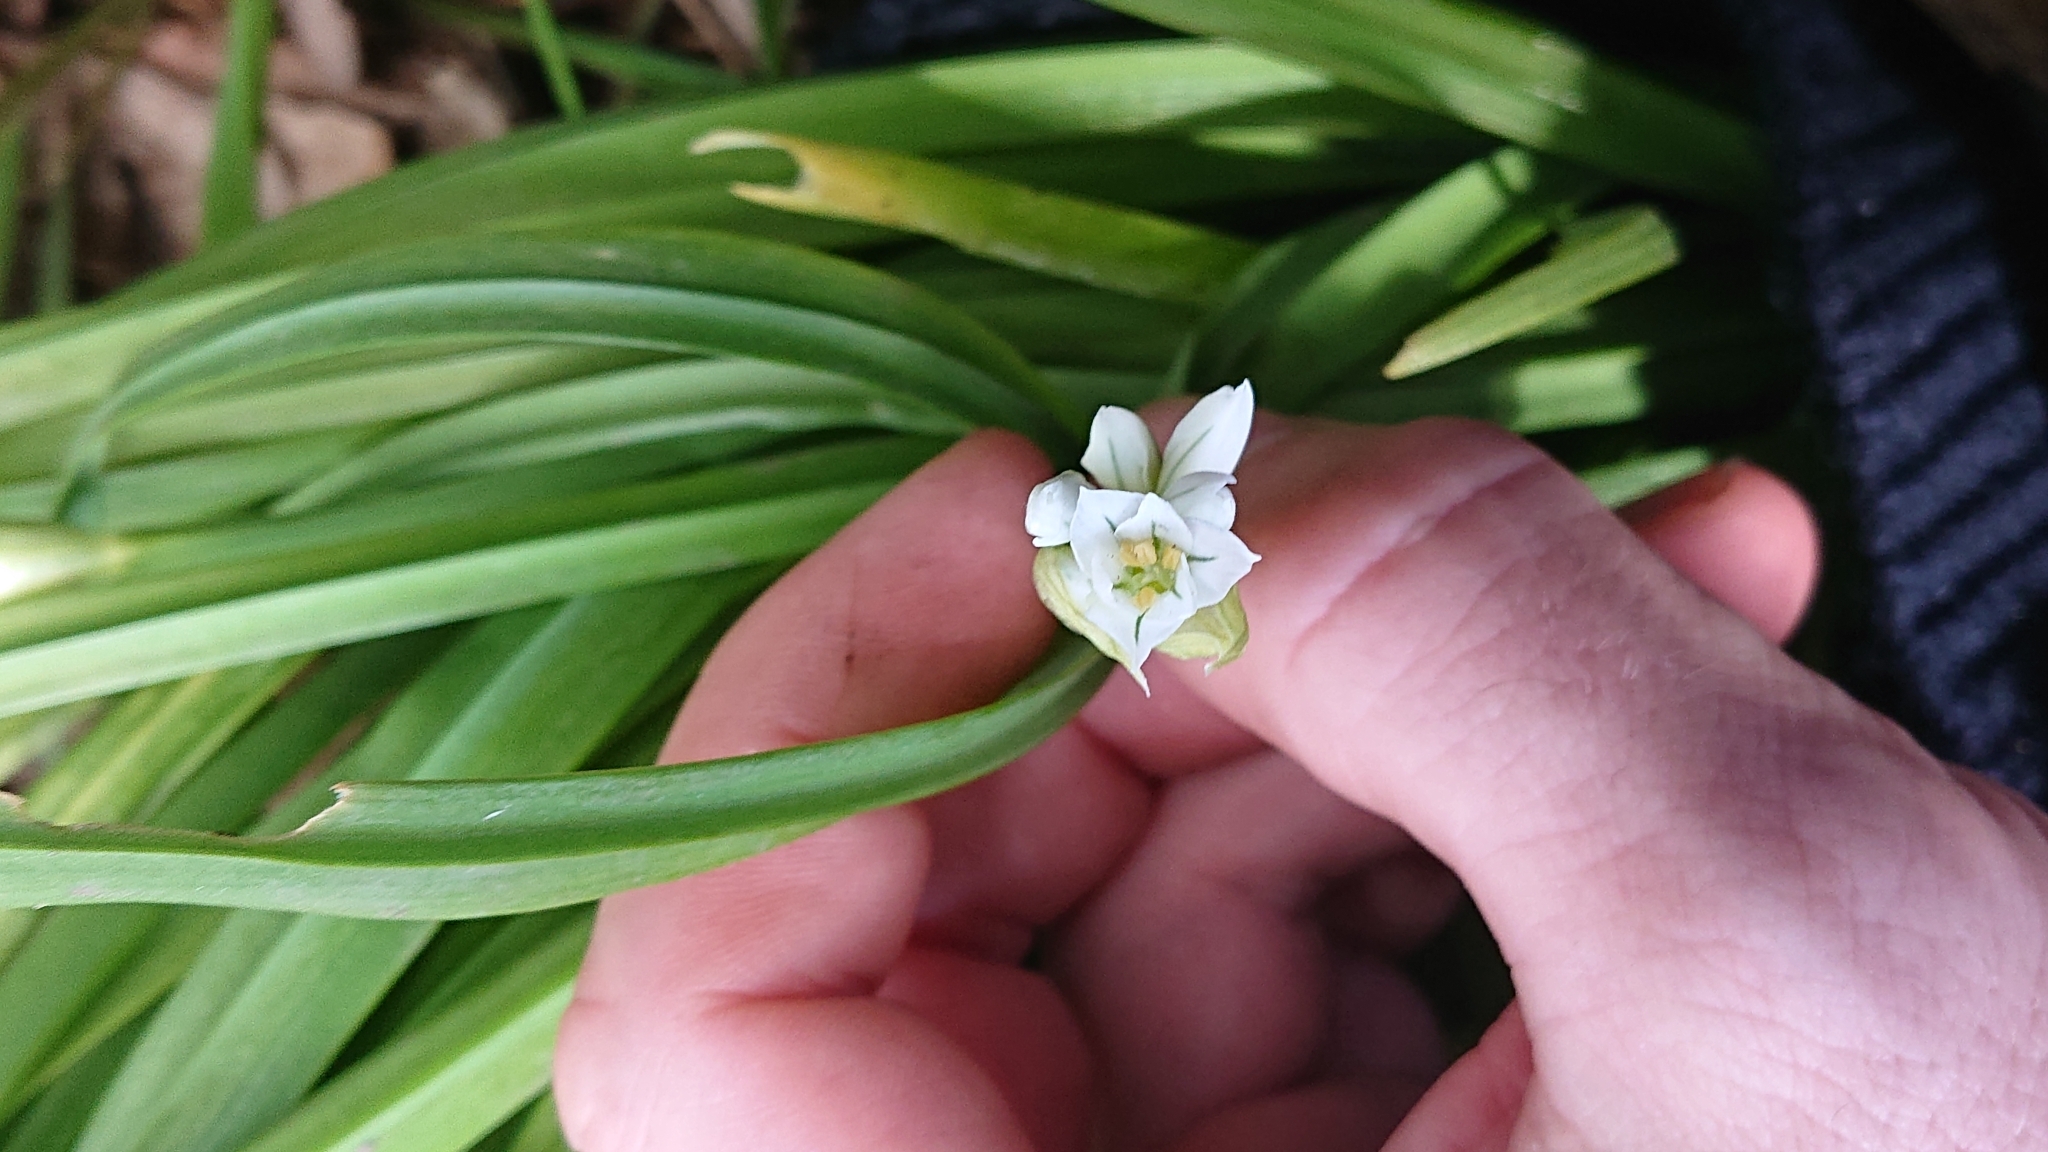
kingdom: Plantae
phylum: Tracheophyta
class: Liliopsida
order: Asparagales
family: Amaryllidaceae
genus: Allium
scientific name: Allium triquetrum
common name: Three-cornered garlic
